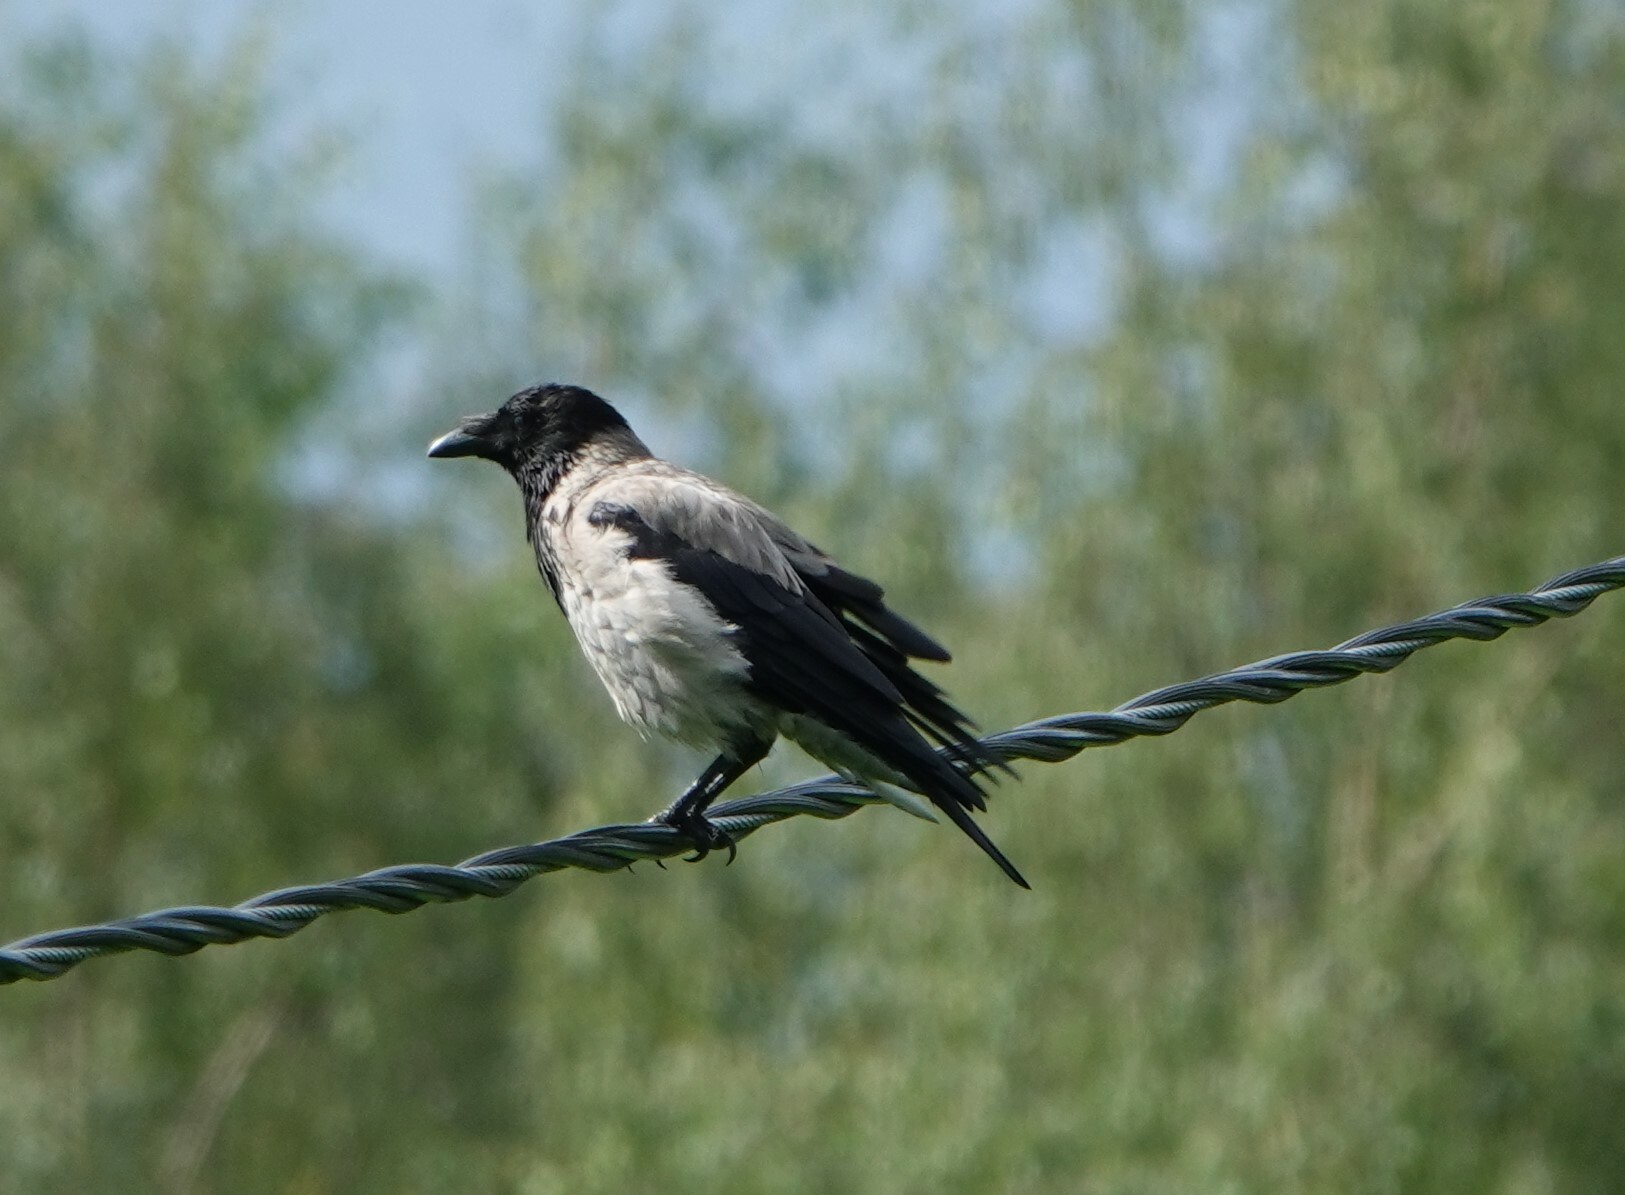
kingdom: Animalia
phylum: Chordata
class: Aves
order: Passeriformes
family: Corvidae
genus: Corvus
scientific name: Corvus cornix
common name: Hooded crow
